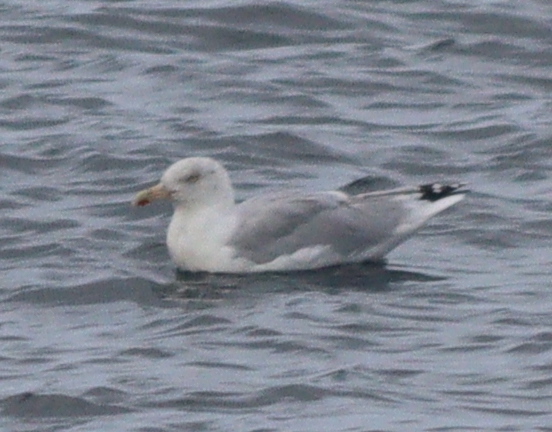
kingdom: Animalia
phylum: Chordata
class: Aves
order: Charadriiformes
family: Laridae
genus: Larus
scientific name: Larus argentatus
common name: Herring gull
